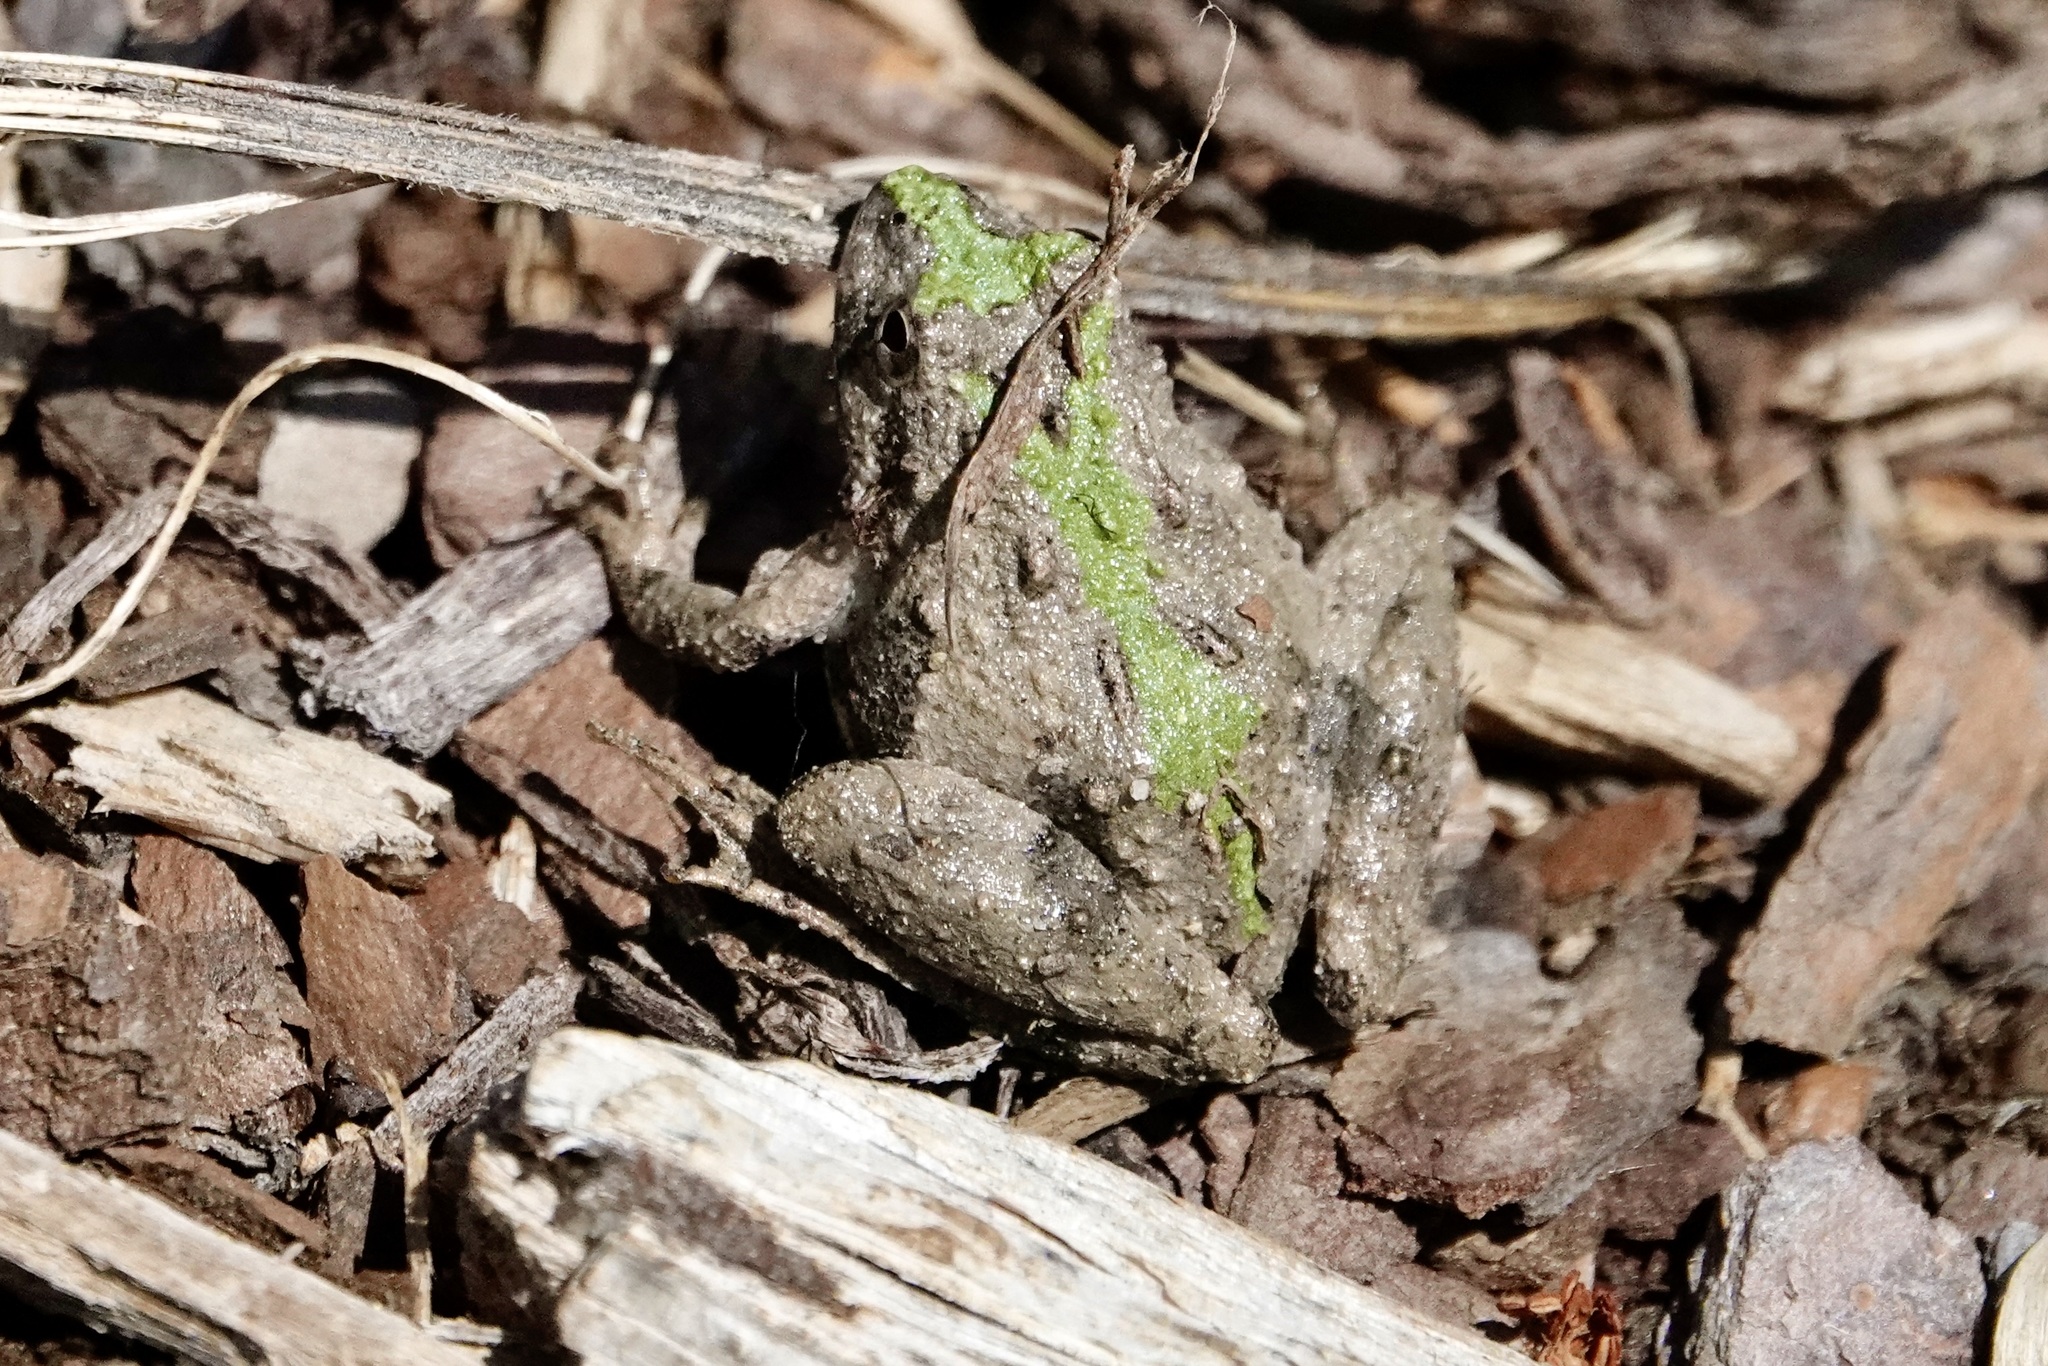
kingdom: Animalia
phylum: Chordata
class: Amphibia
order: Anura
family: Hylidae
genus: Acris
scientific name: Acris crepitans
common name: Northern cricket frog
